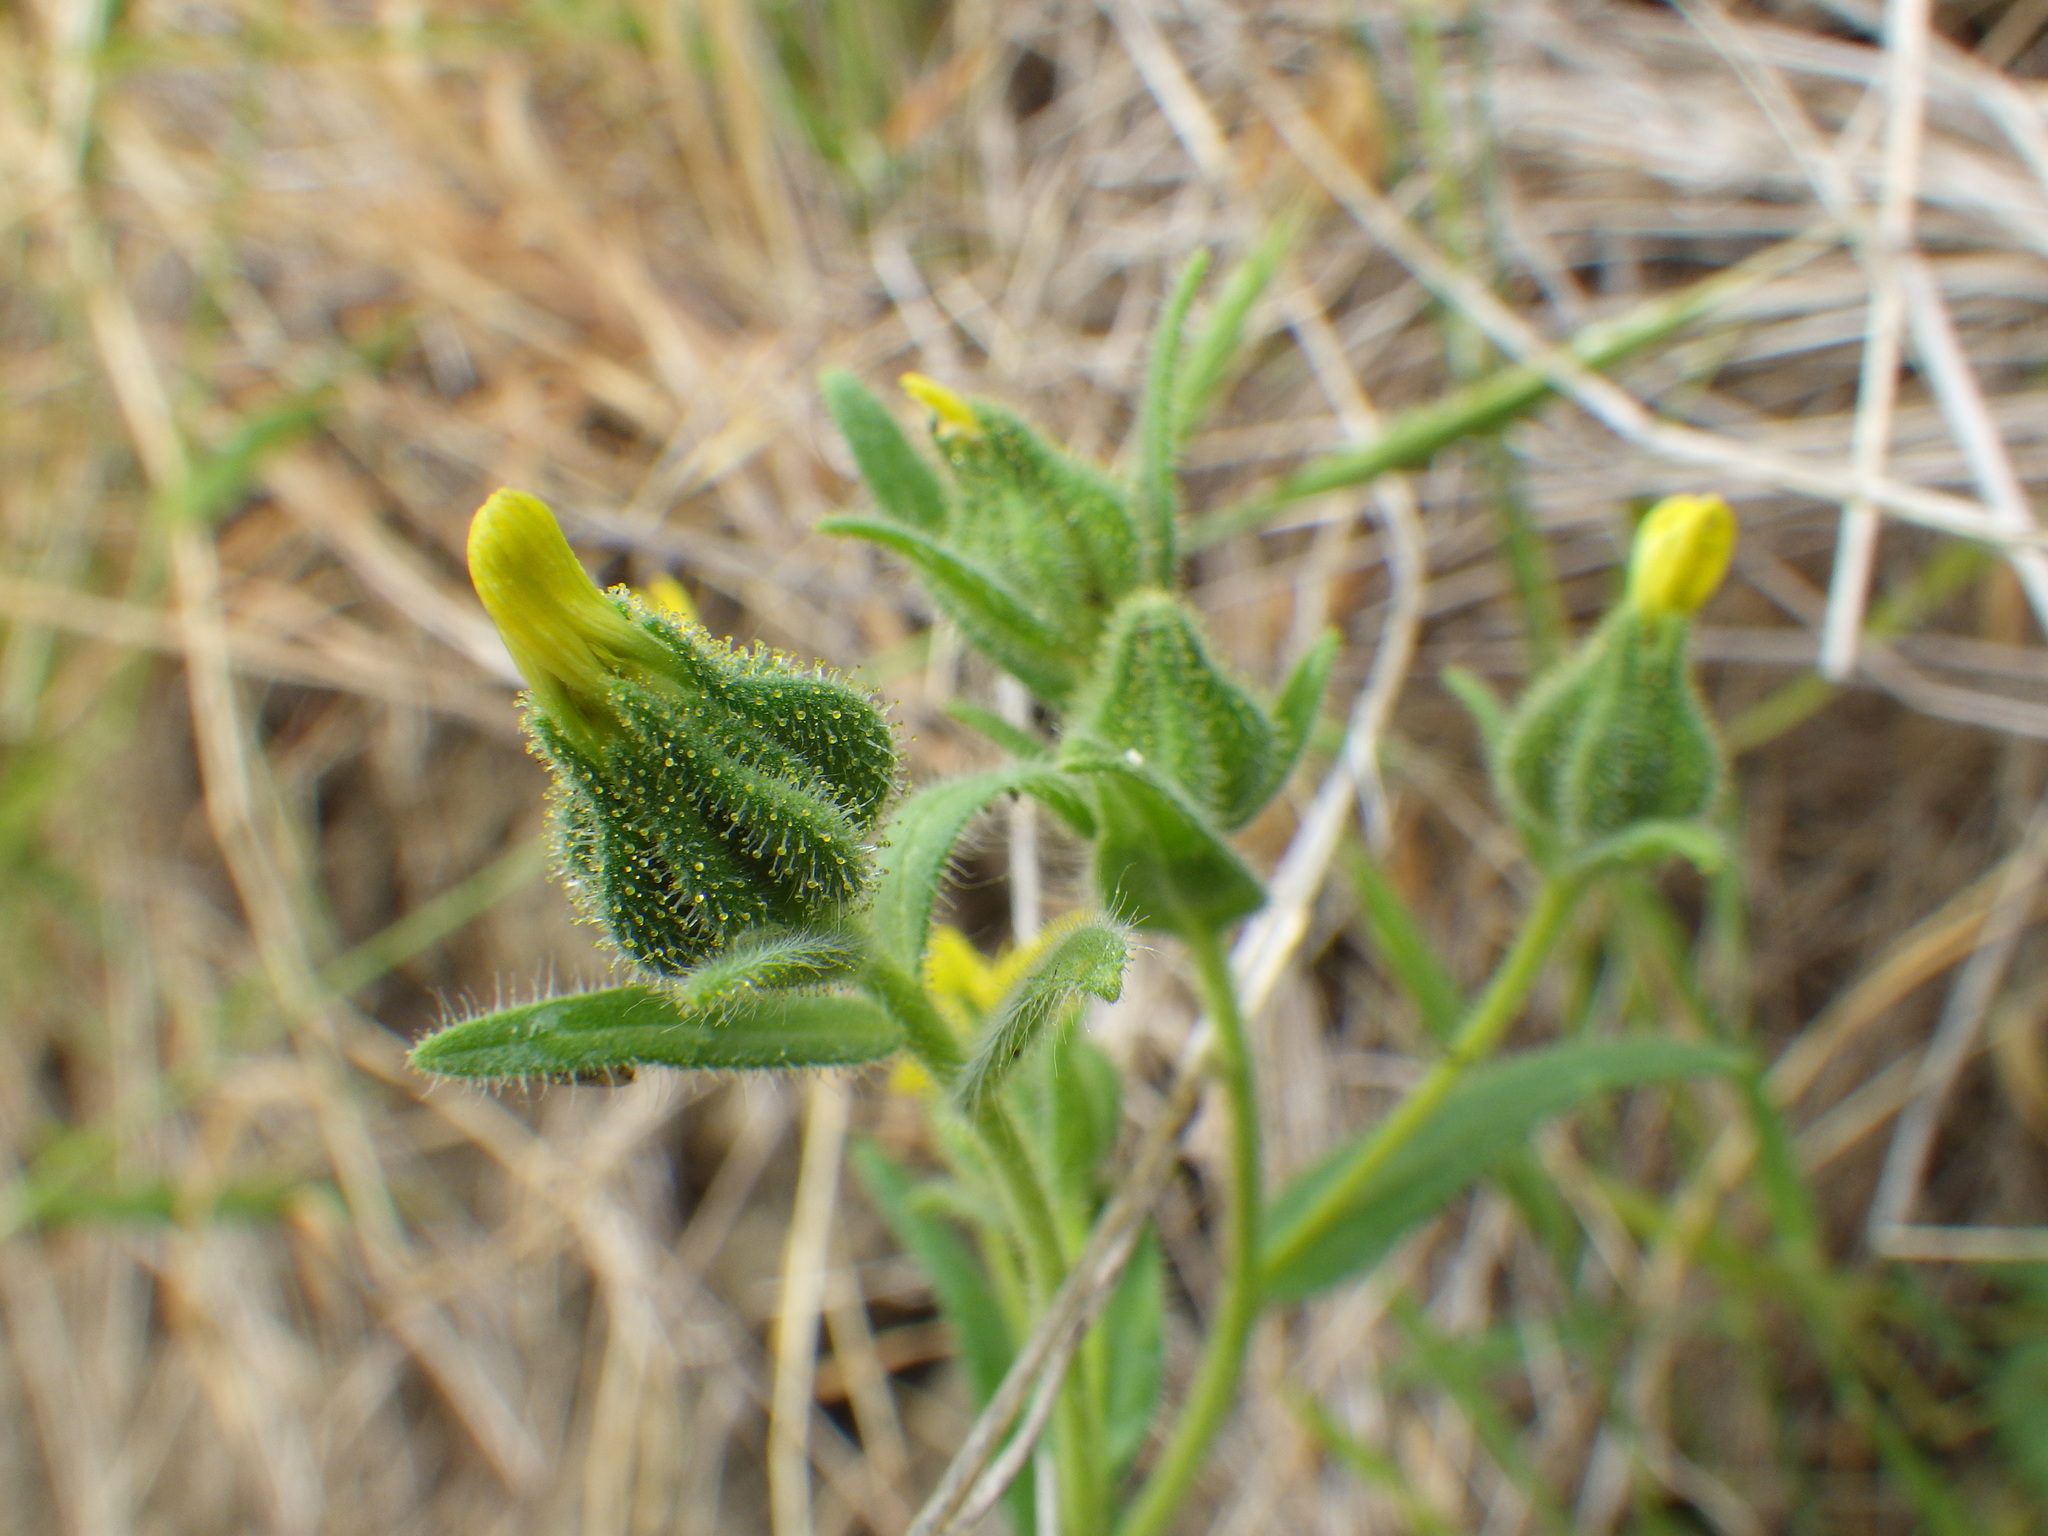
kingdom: Plantae
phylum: Tracheophyta
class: Magnoliopsida
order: Asterales
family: Asteraceae
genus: Madia
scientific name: Madia gracilis
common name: Grassy tarweed
